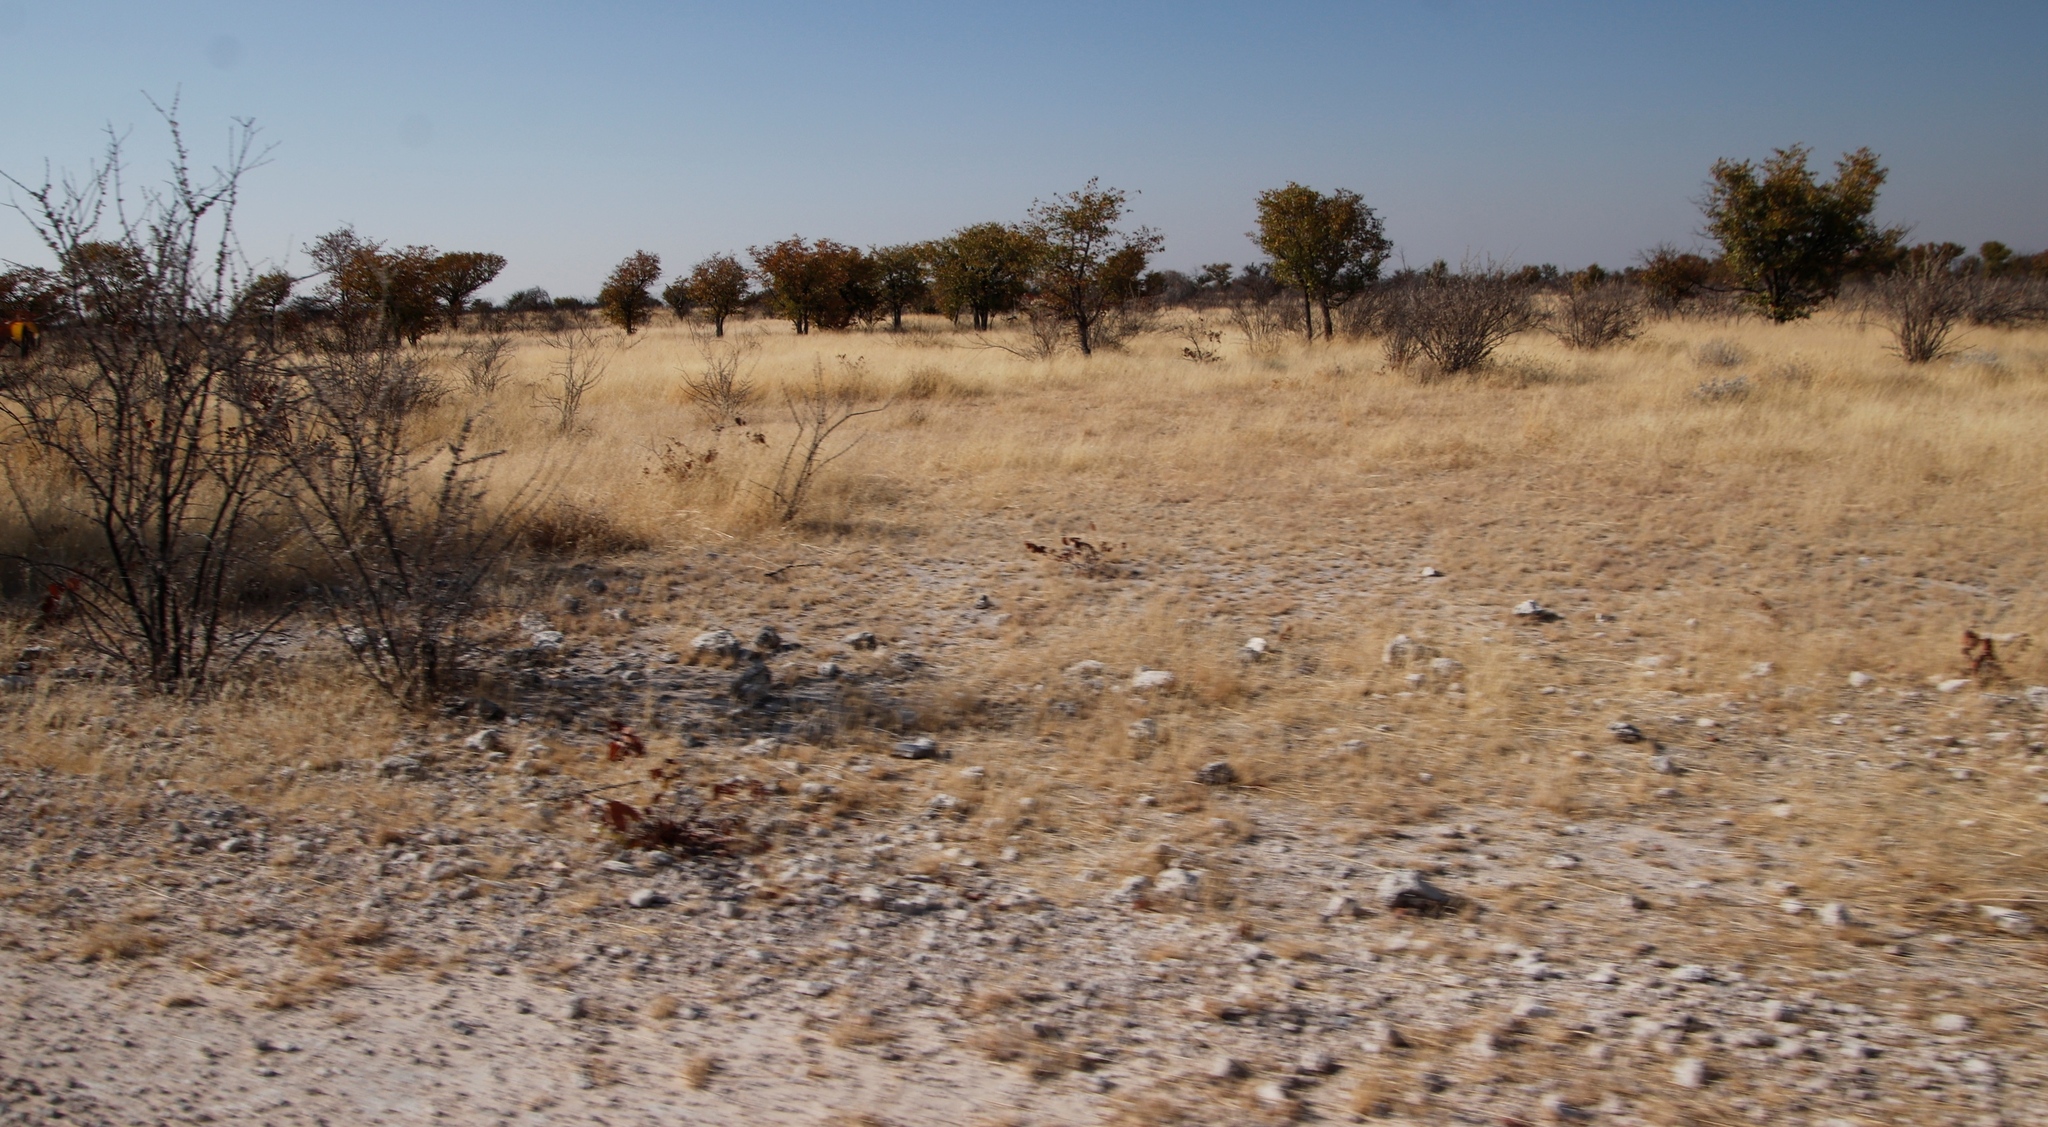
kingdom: Plantae
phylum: Tracheophyta
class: Magnoliopsida
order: Fabales
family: Fabaceae
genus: Colophospermum
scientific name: Colophospermum mopane
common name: Mopane
